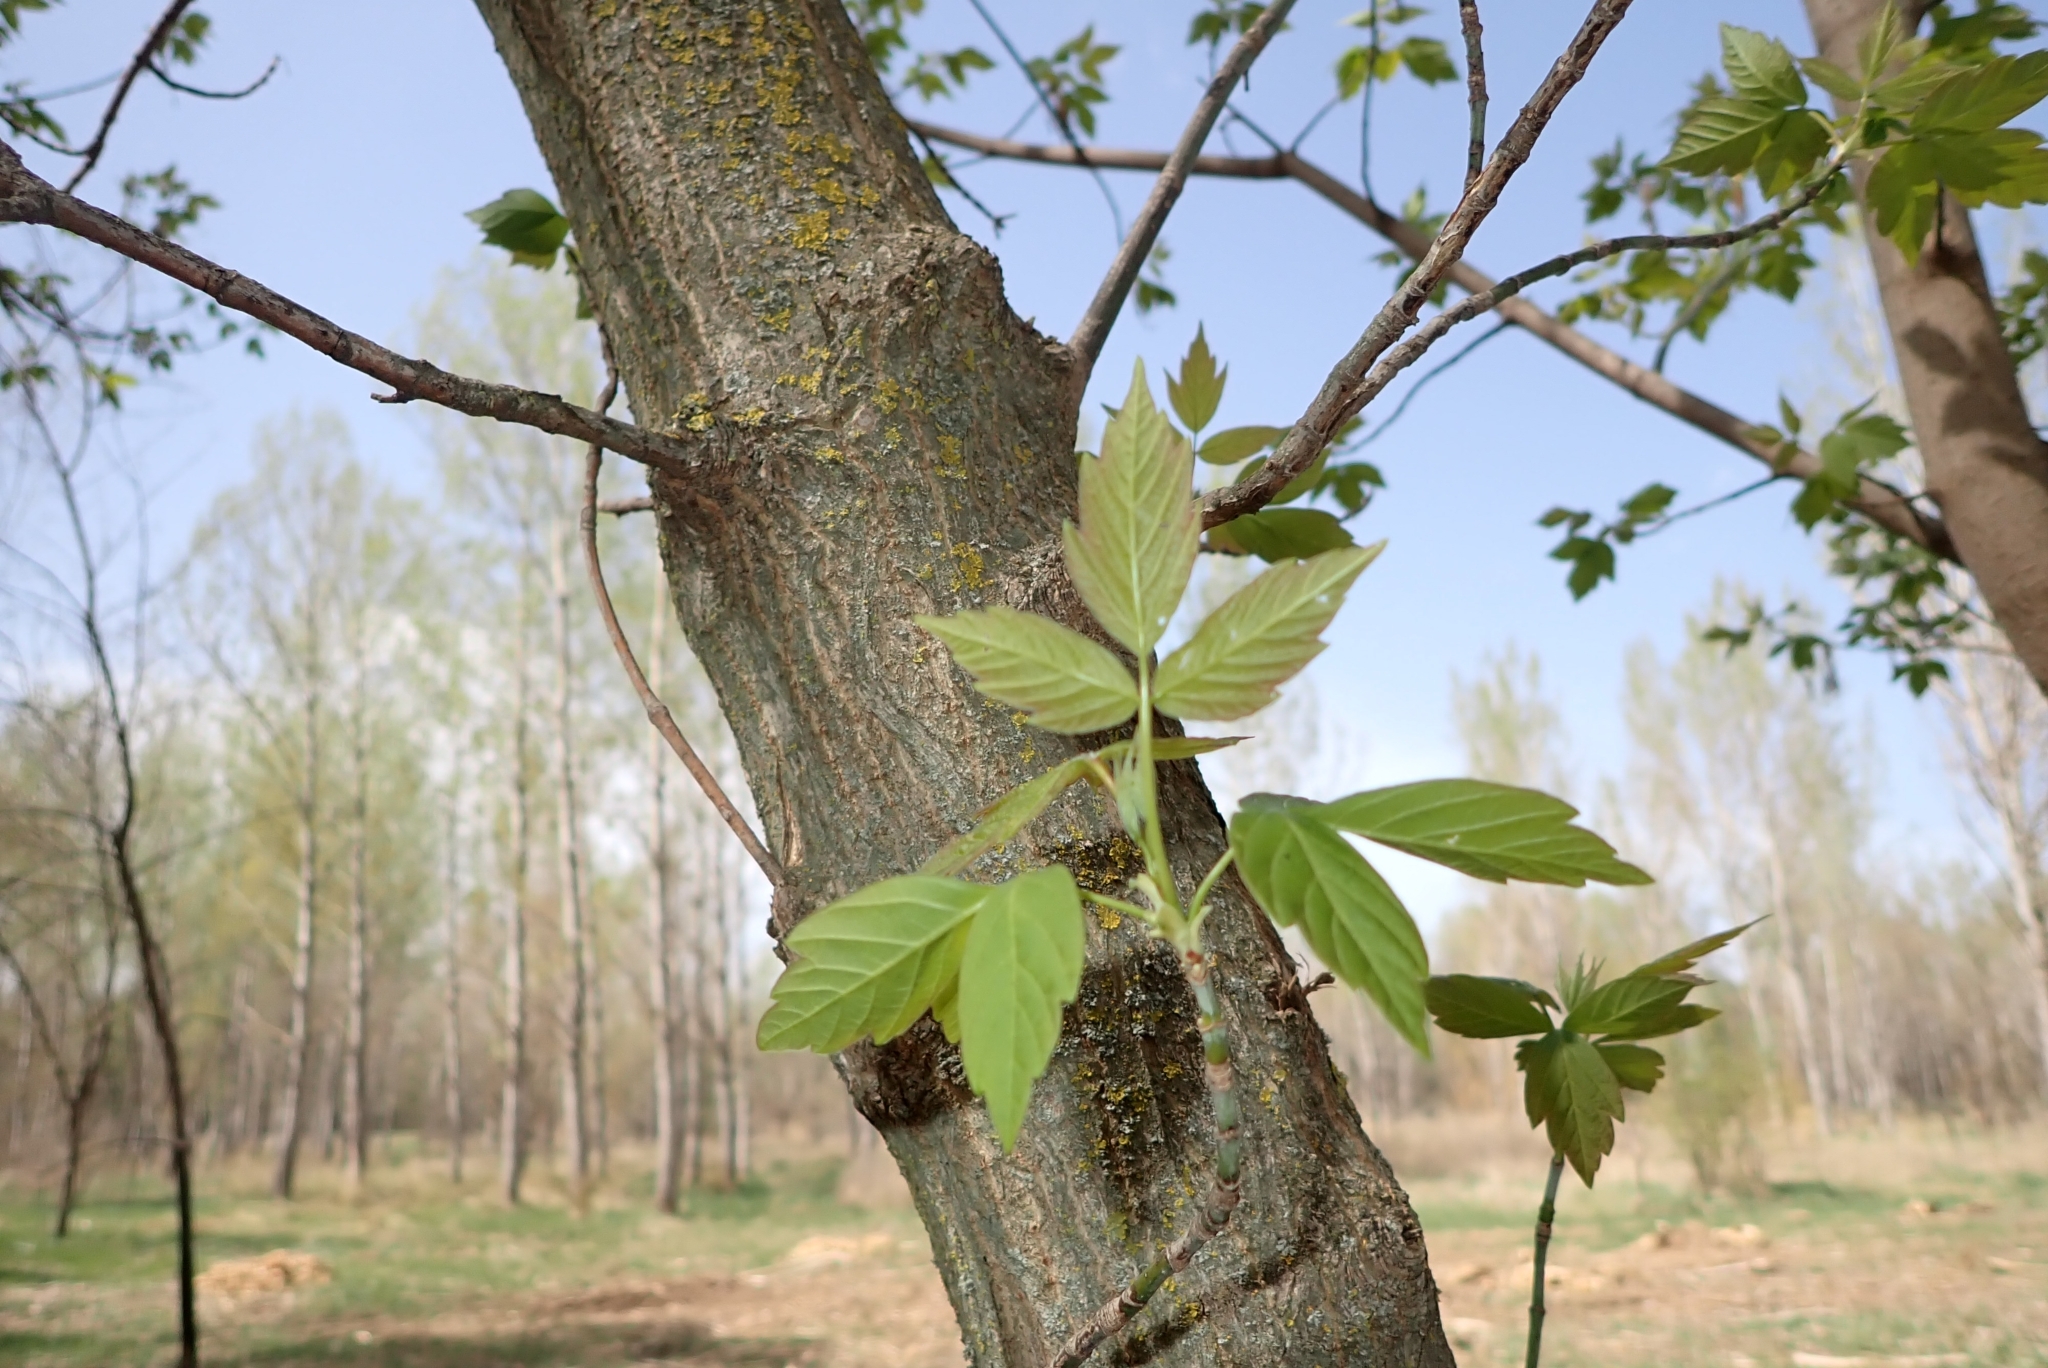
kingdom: Plantae
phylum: Tracheophyta
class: Magnoliopsida
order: Sapindales
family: Sapindaceae
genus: Acer
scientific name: Acer negundo
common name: Ashleaf maple
